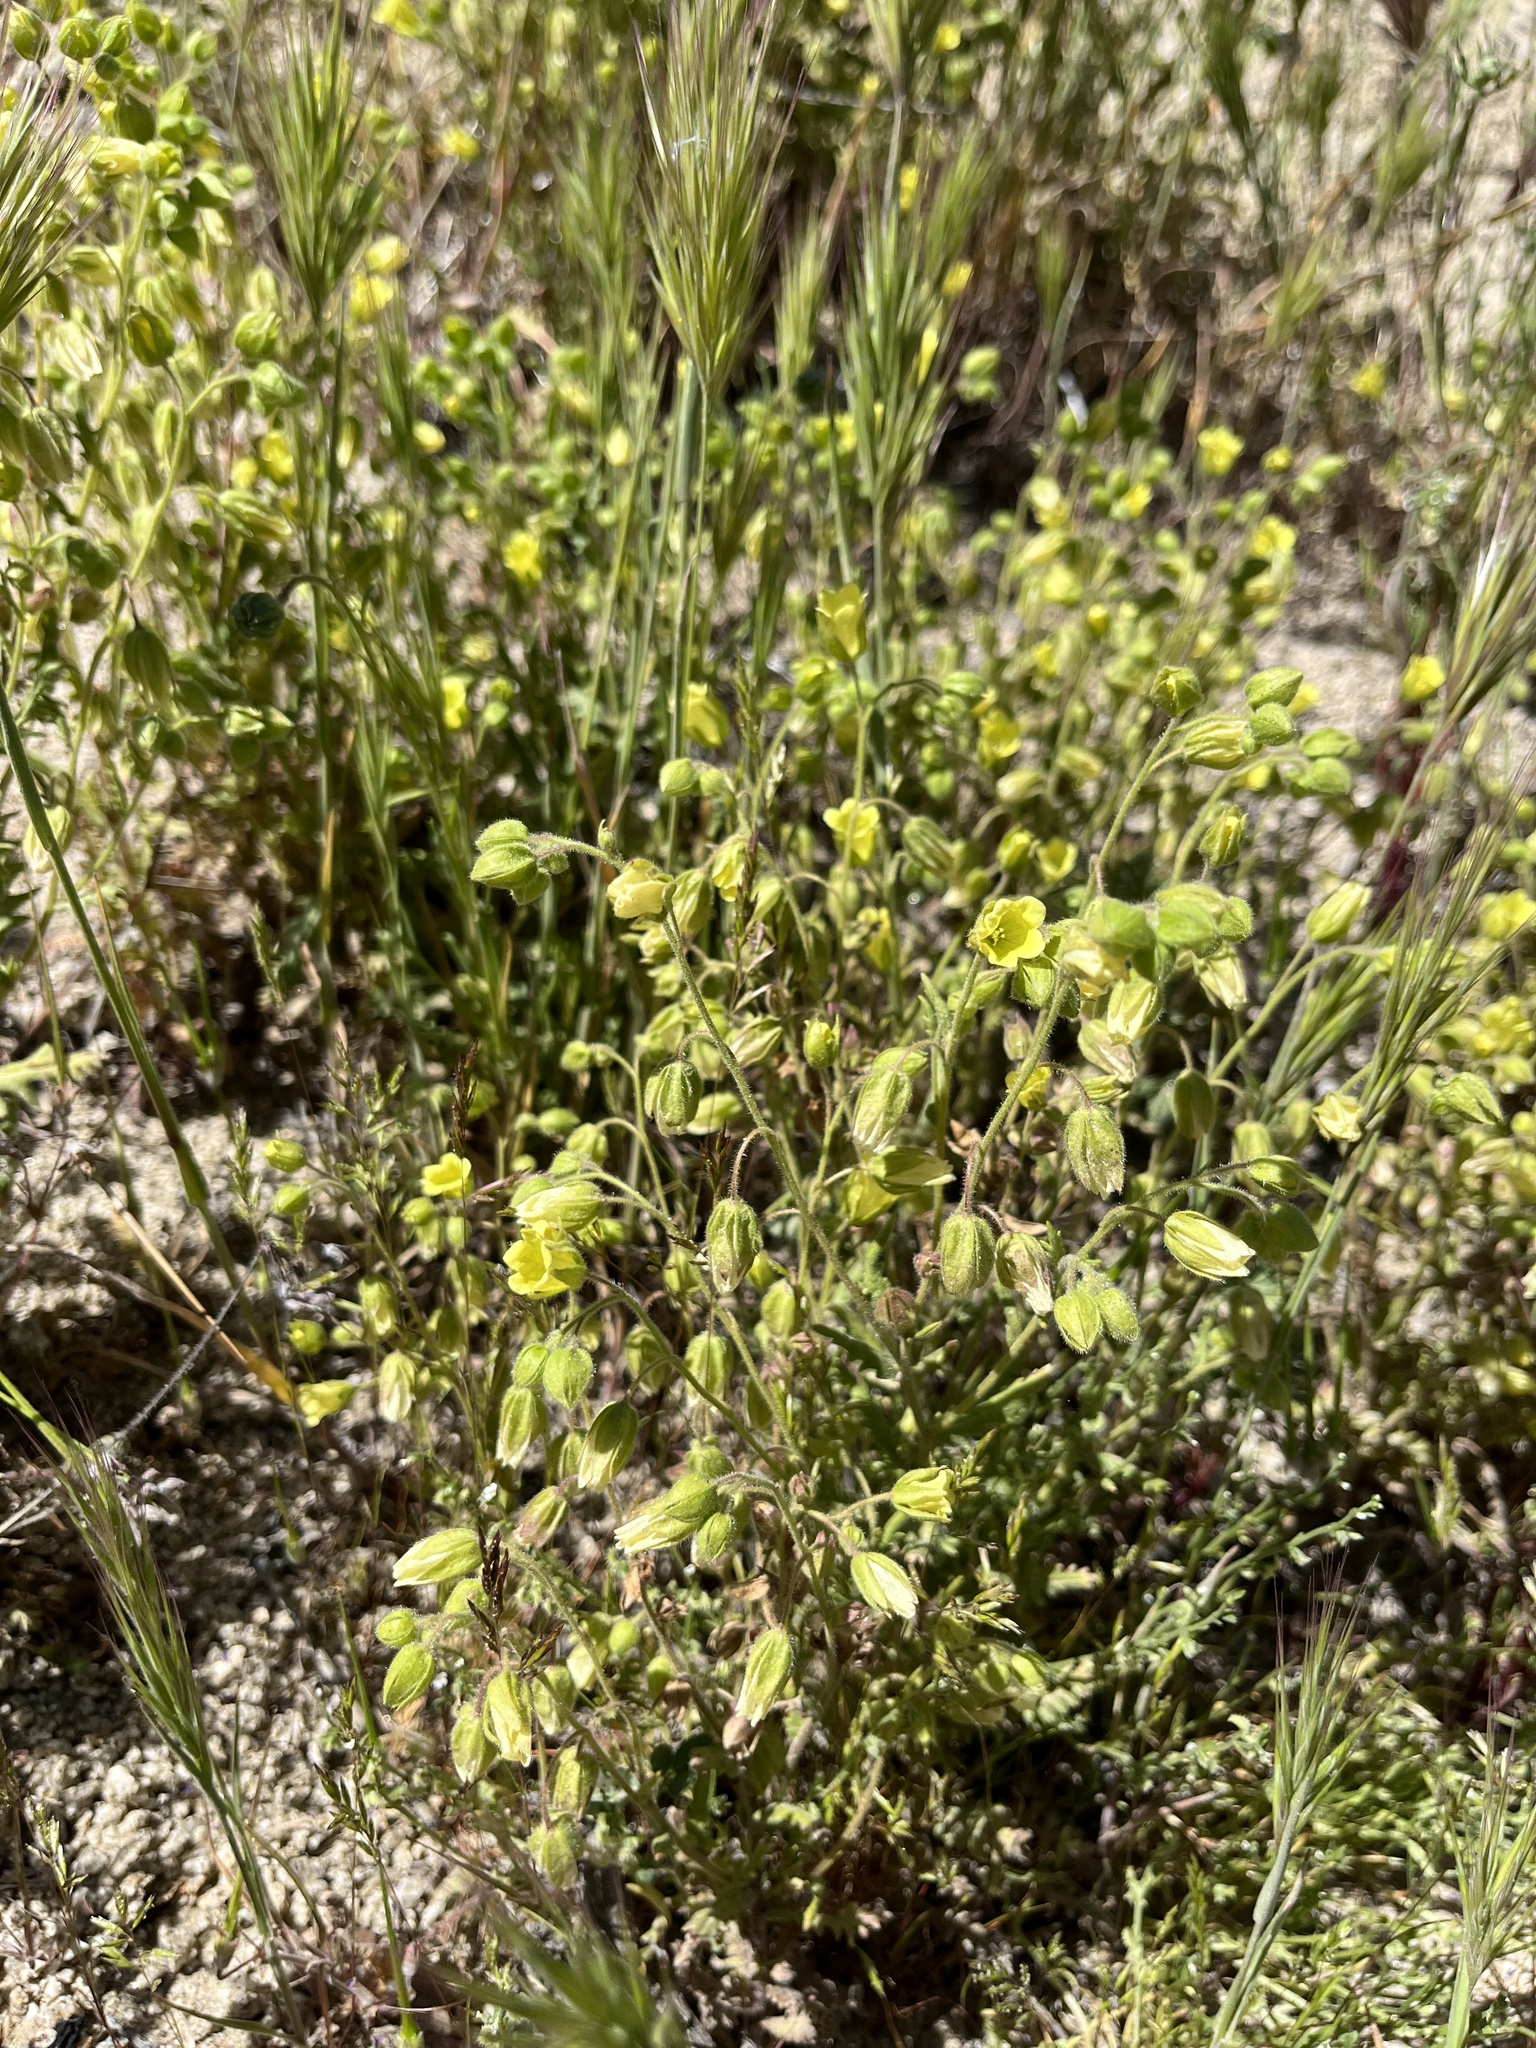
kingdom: Plantae
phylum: Tracheophyta
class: Magnoliopsida
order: Boraginales
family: Hydrophyllaceae
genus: Emmenanthe
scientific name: Emmenanthe penduliflora
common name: Whispering-bells
